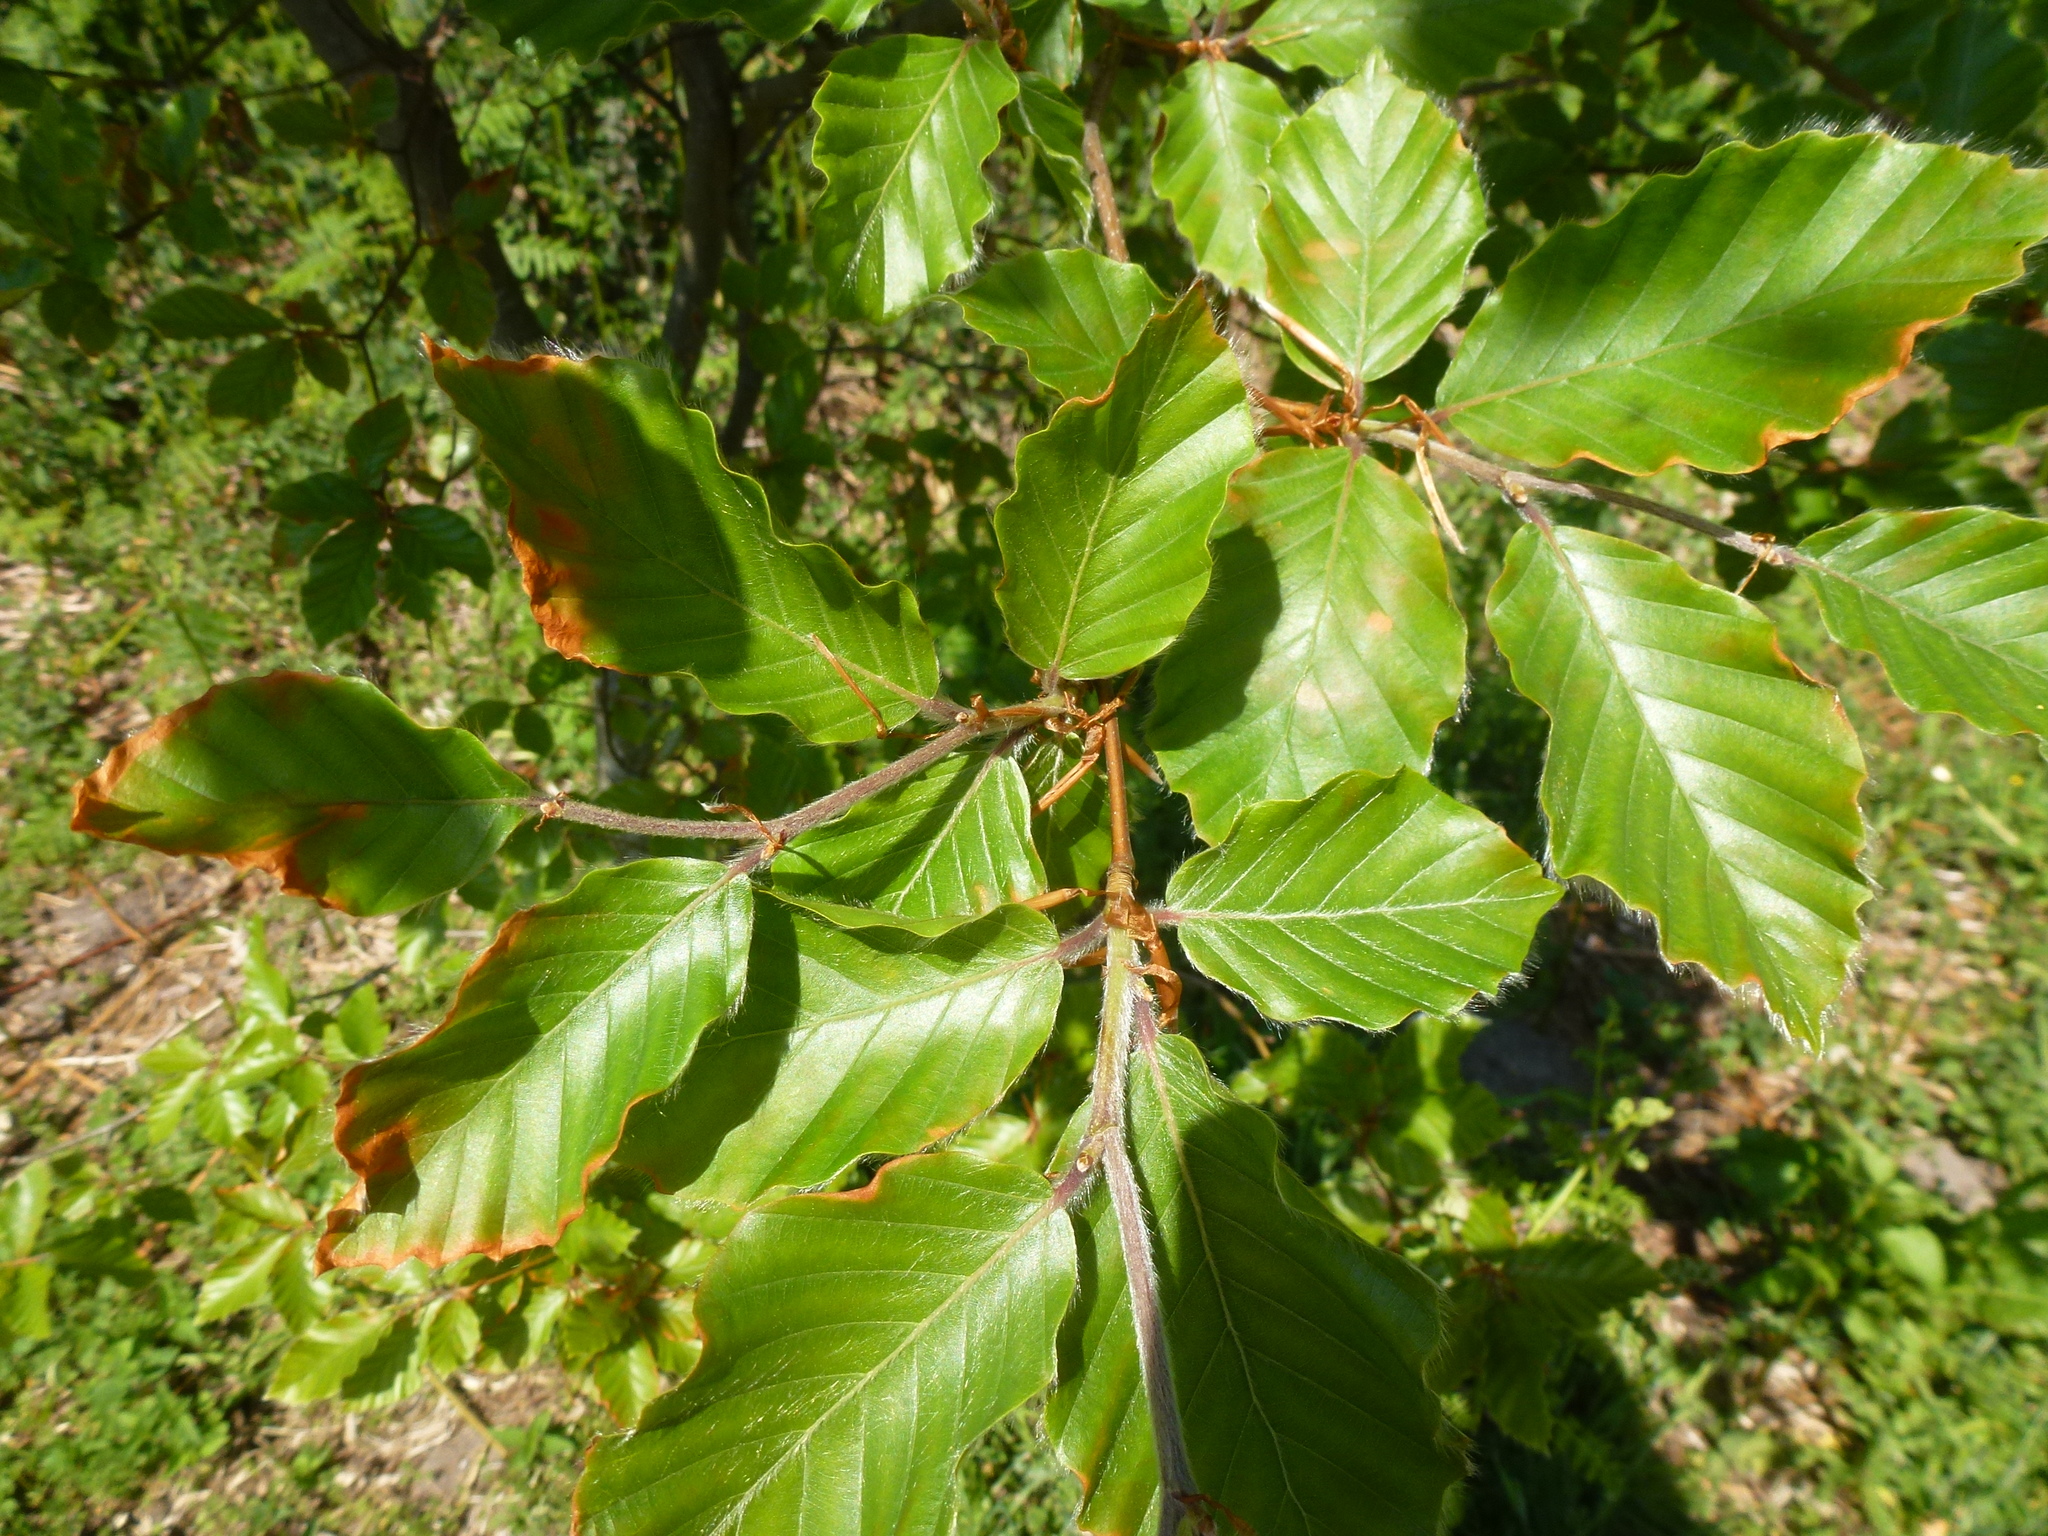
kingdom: Plantae
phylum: Tracheophyta
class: Magnoliopsida
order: Fagales
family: Fagaceae
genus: Fagus
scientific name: Fagus sylvatica
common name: Beech
